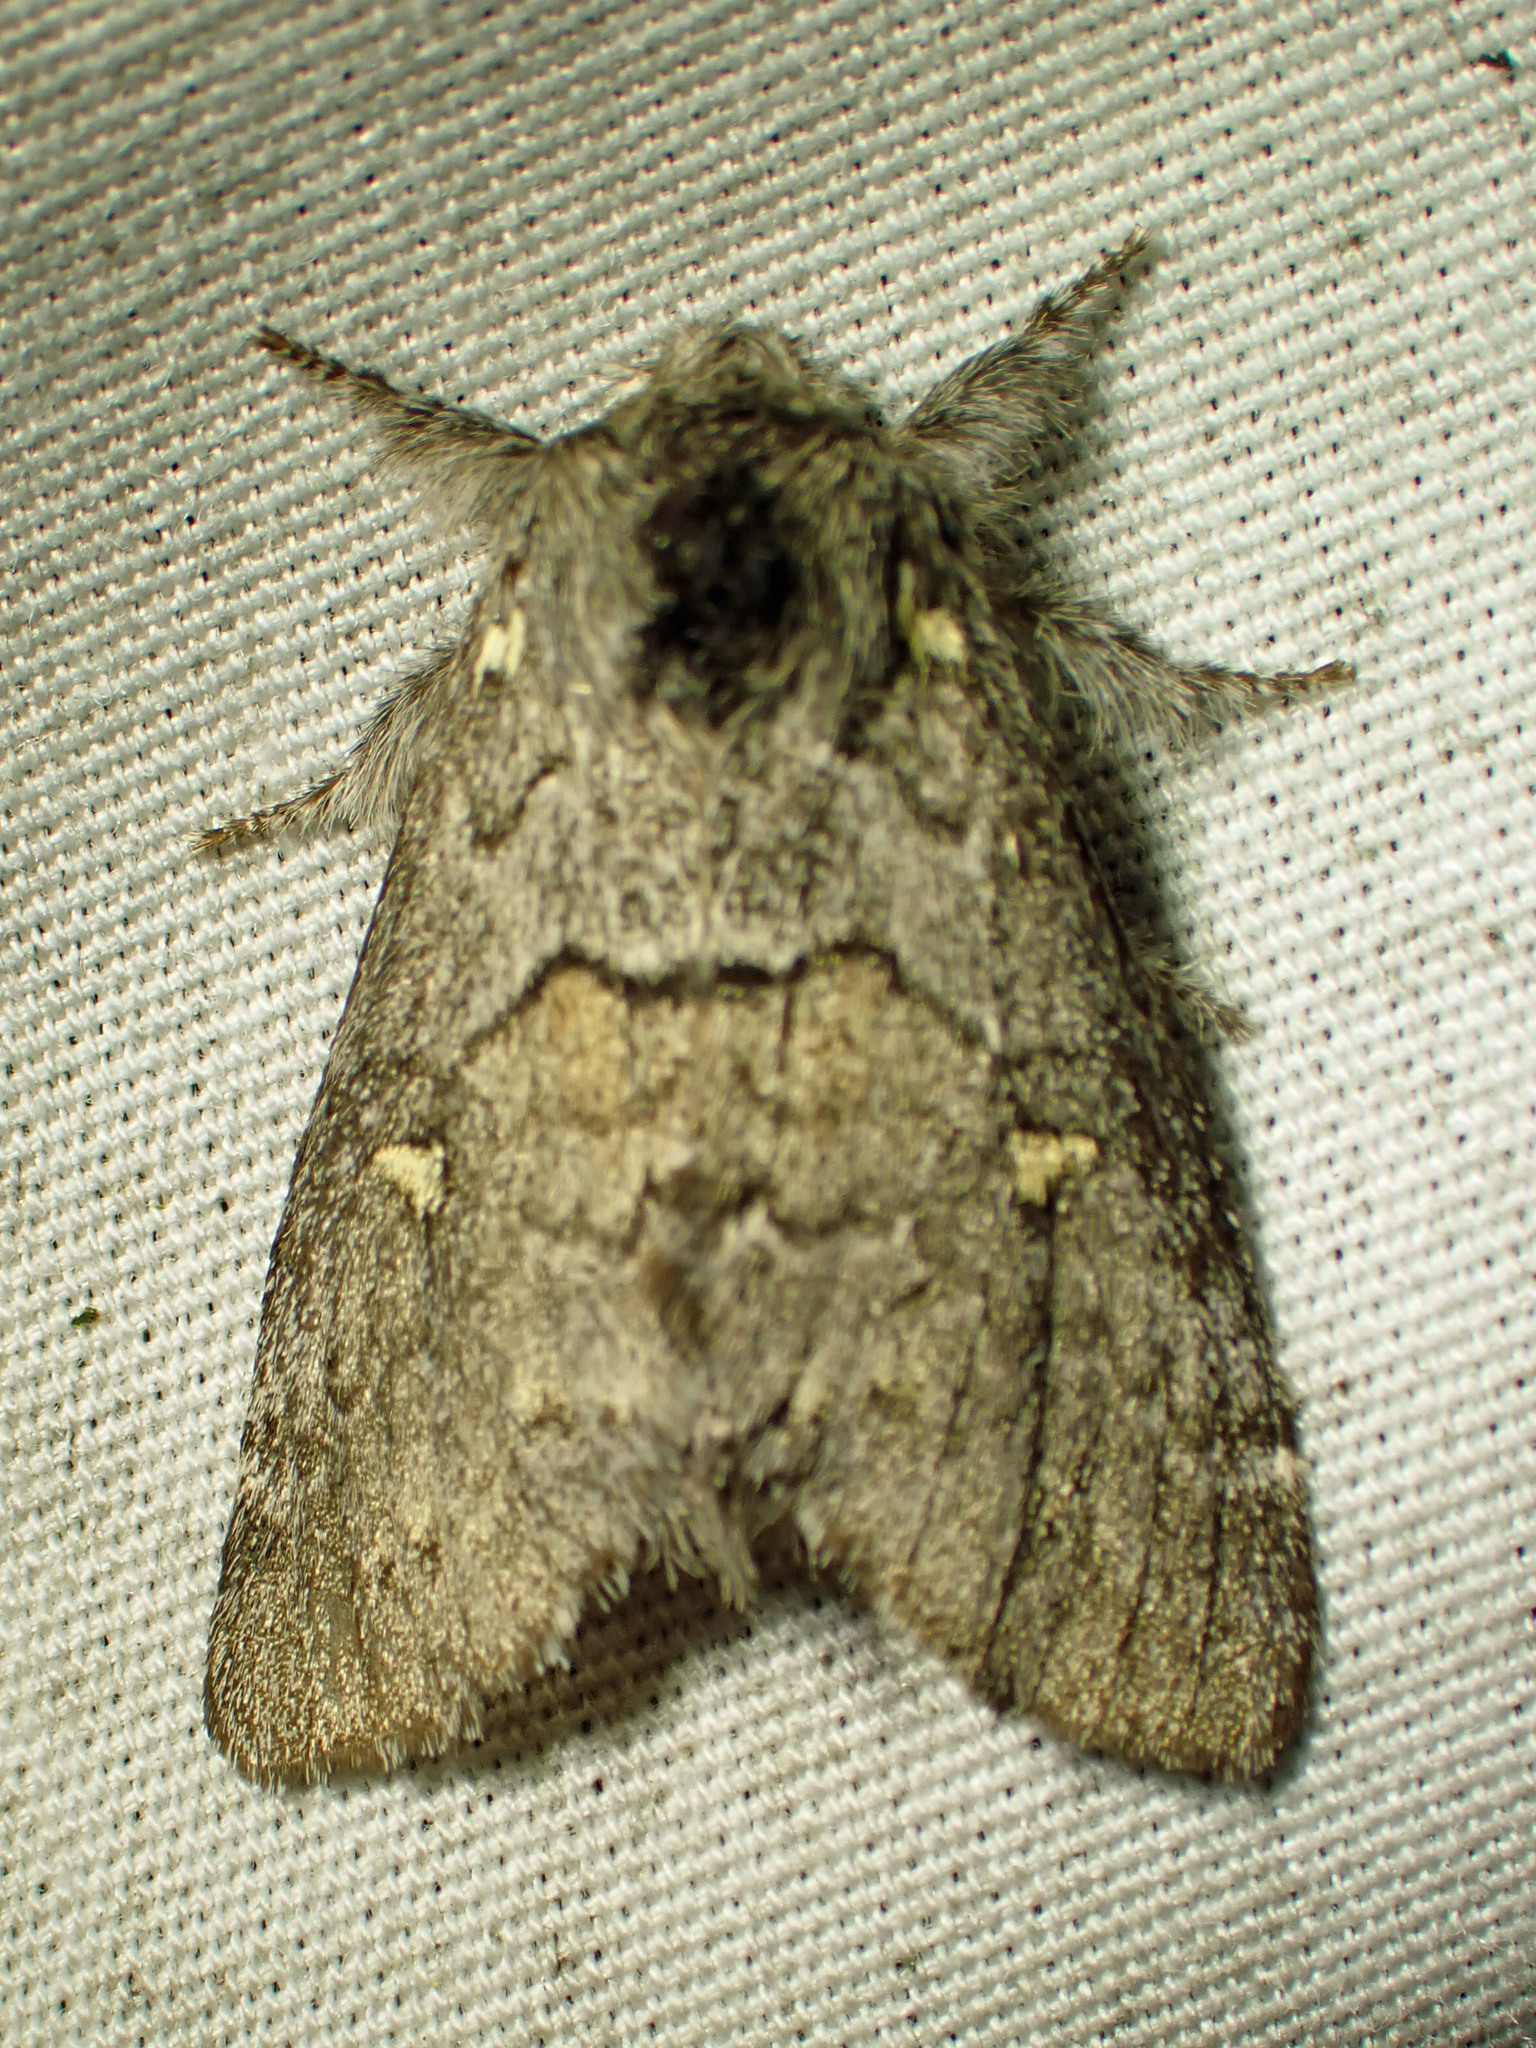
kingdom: Animalia
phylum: Arthropoda
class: Insecta
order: Lepidoptera
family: Notodontidae
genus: Gluphisia
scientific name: Gluphisia avimacula
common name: Four-spotted gluphisia moth
